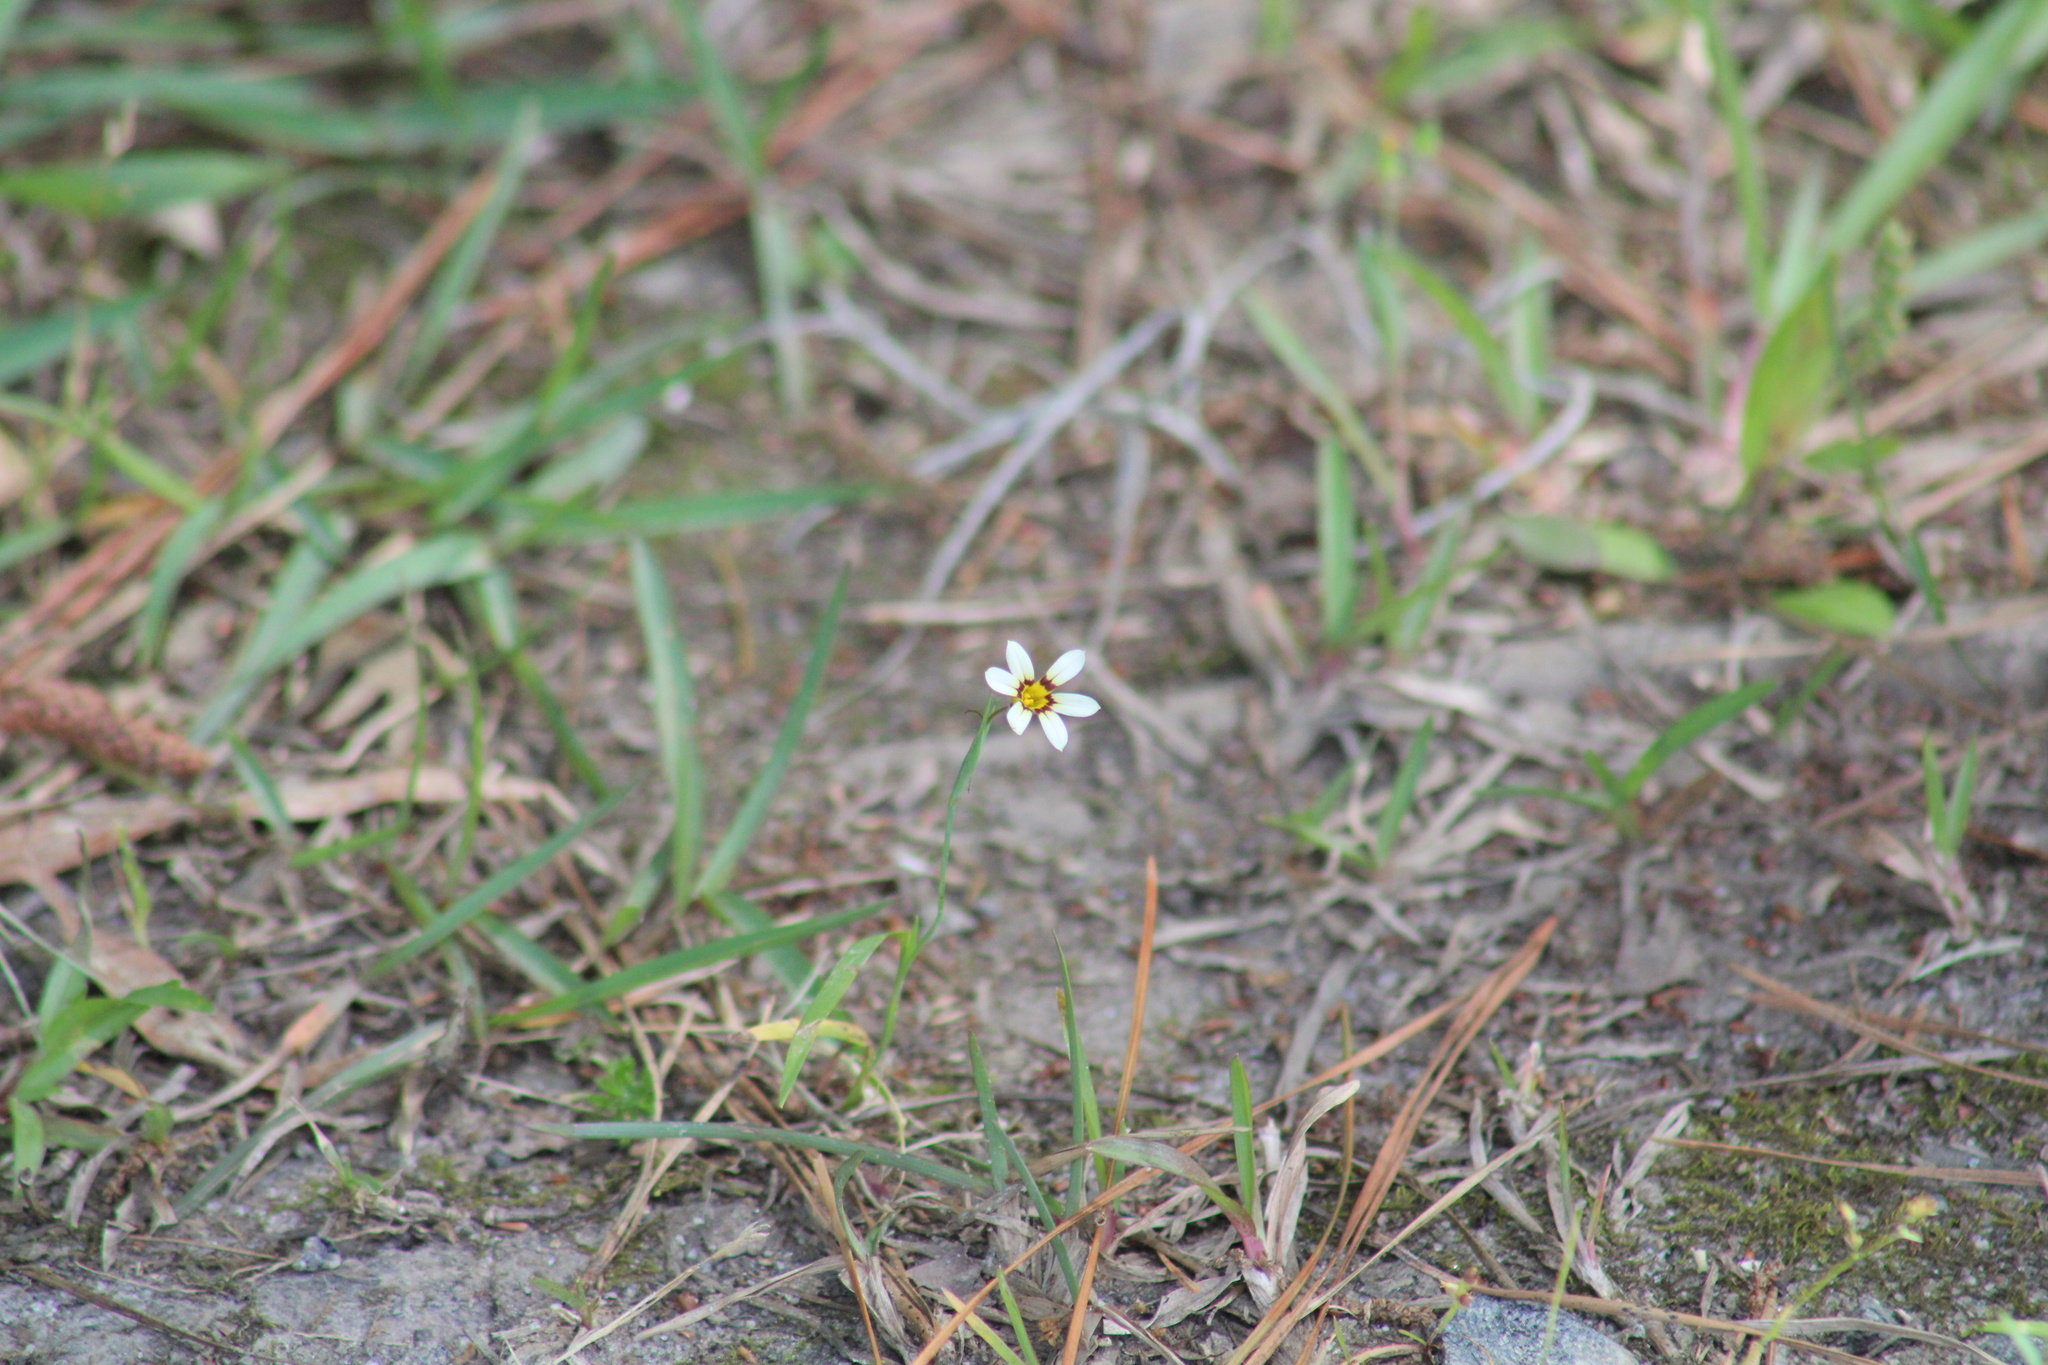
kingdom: Plantae
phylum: Tracheophyta
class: Liliopsida
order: Asparagales
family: Iridaceae
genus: Sisyrinchium
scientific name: Sisyrinchium micranthum
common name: Bermuda pigroot
